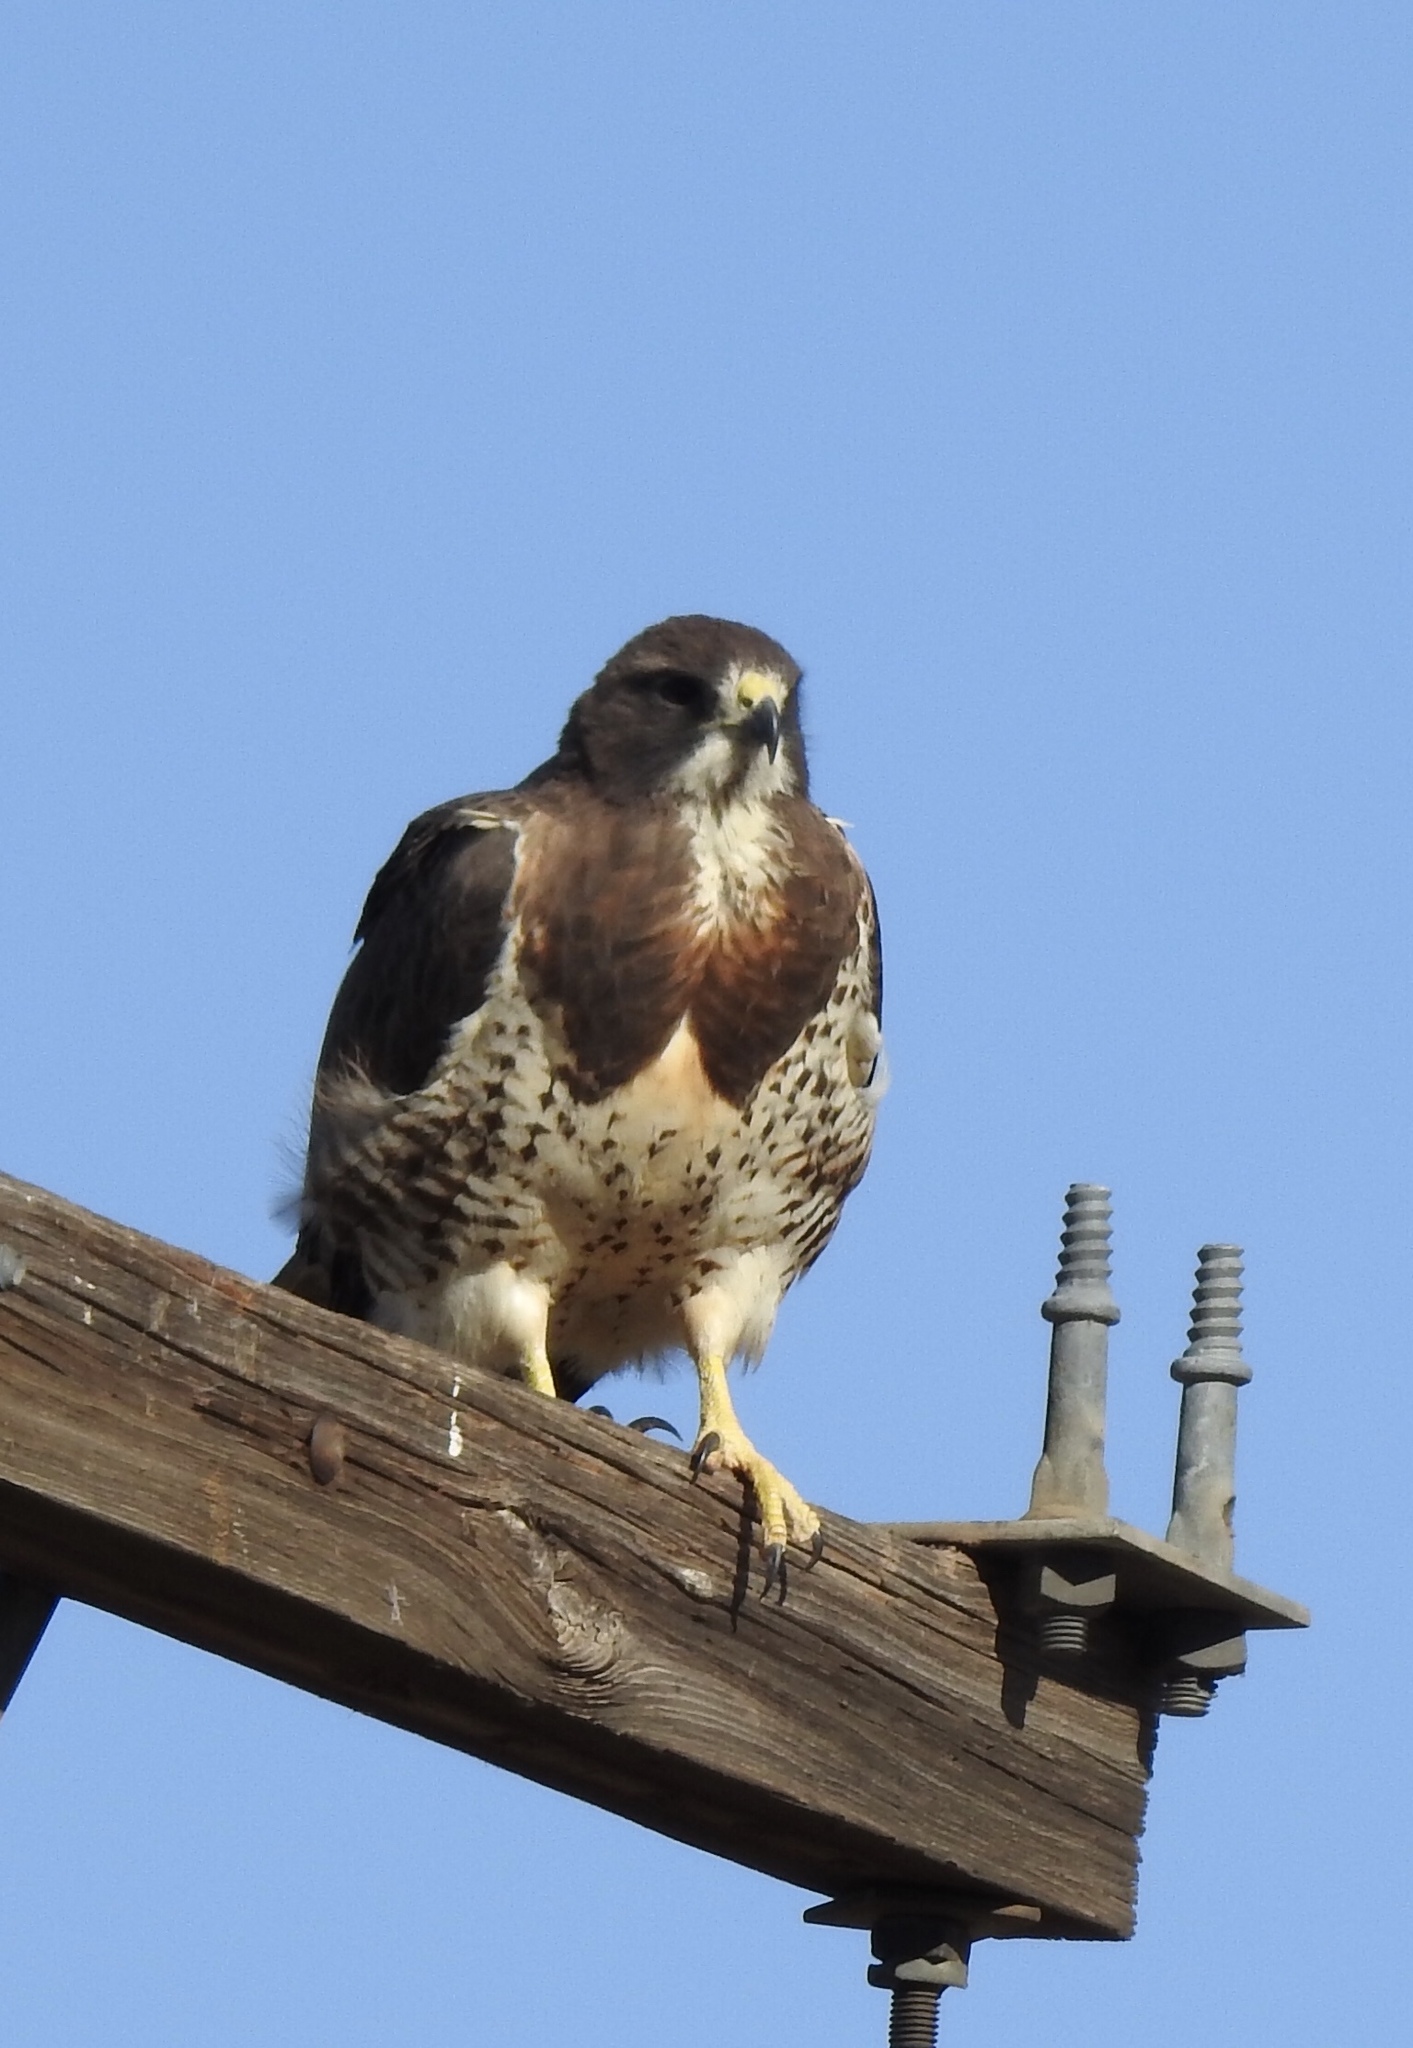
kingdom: Animalia
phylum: Chordata
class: Aves
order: Accipitriformes
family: Accipitridae
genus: Buteo
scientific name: Buteo swainsoni
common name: Swainson's hawk
